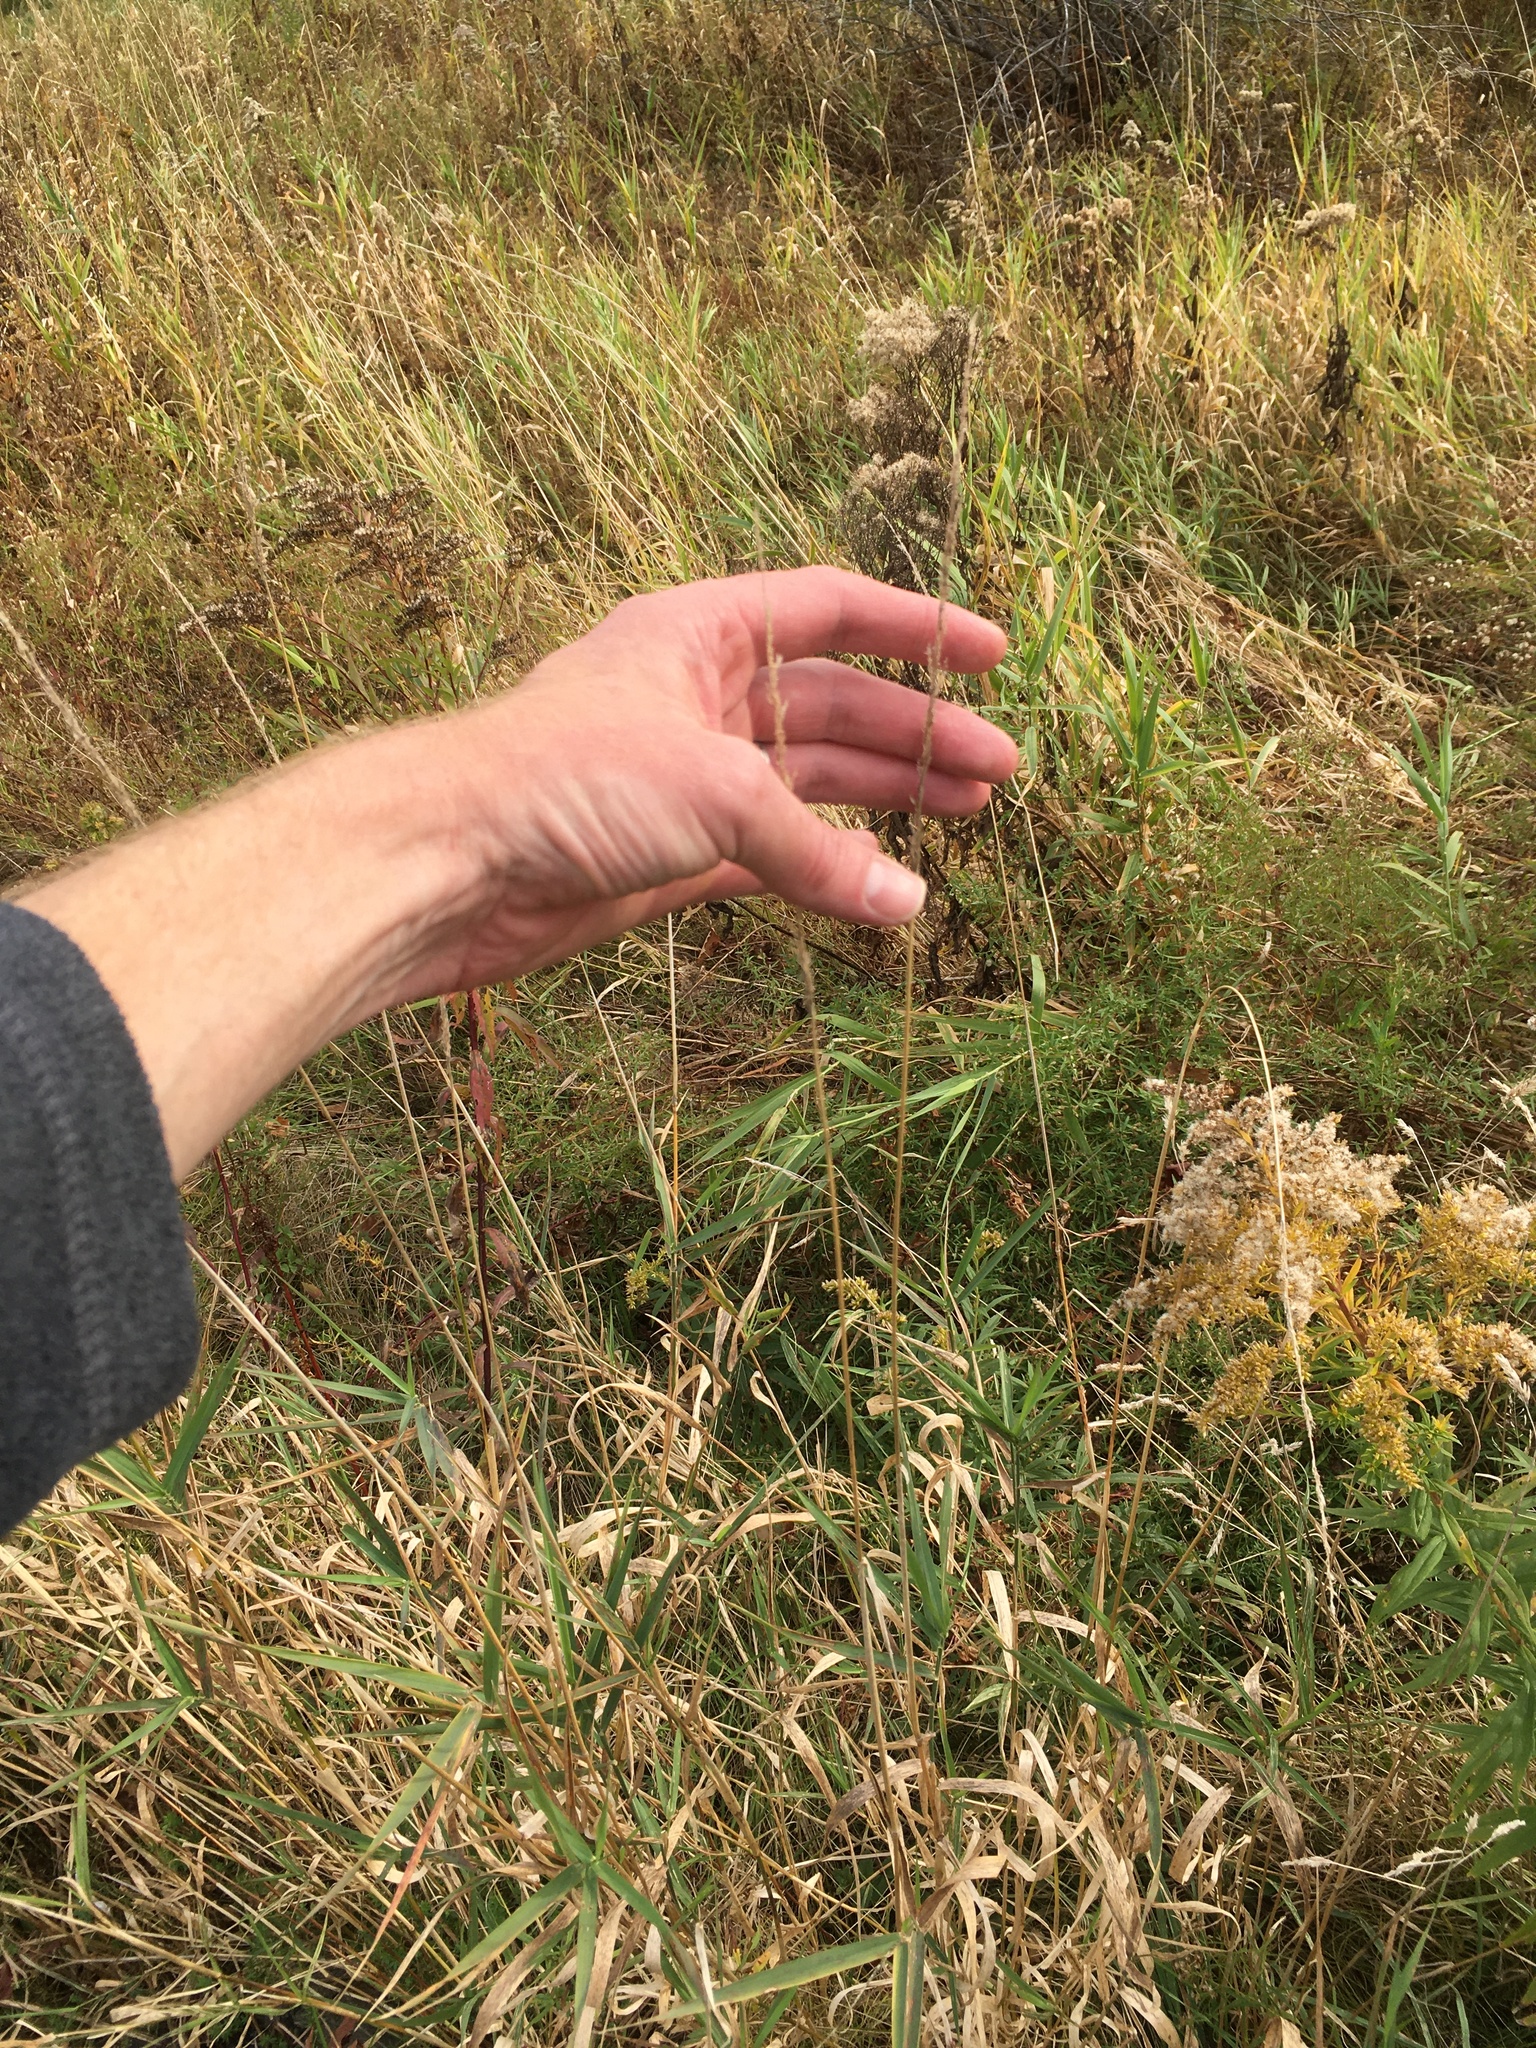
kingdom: Plantae
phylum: Tracheophyta
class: Liliopsida
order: Poales
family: Poaceae
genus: Phalaris
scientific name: Phalaris arundinacea
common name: Reed canary-grass
